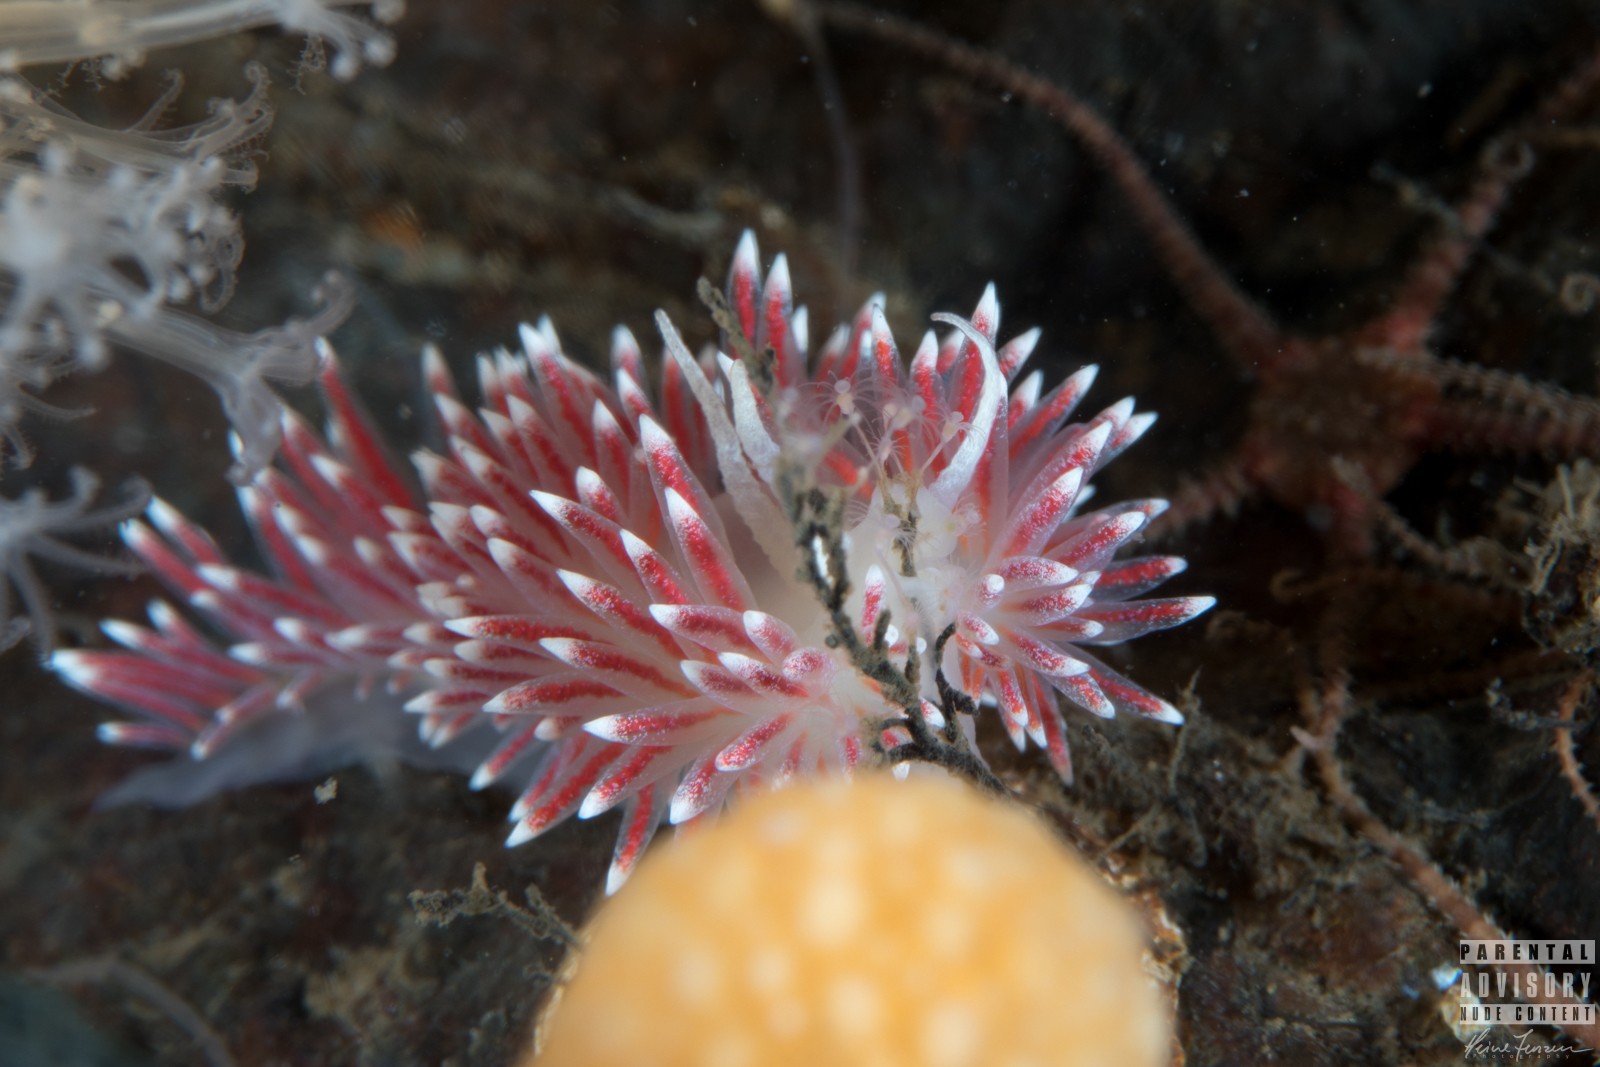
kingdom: Animalia
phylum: Mollusca
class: Gastropoda
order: Nudibranchia
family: Flabellinidae
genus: Carronella
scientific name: Carronella pellucida
